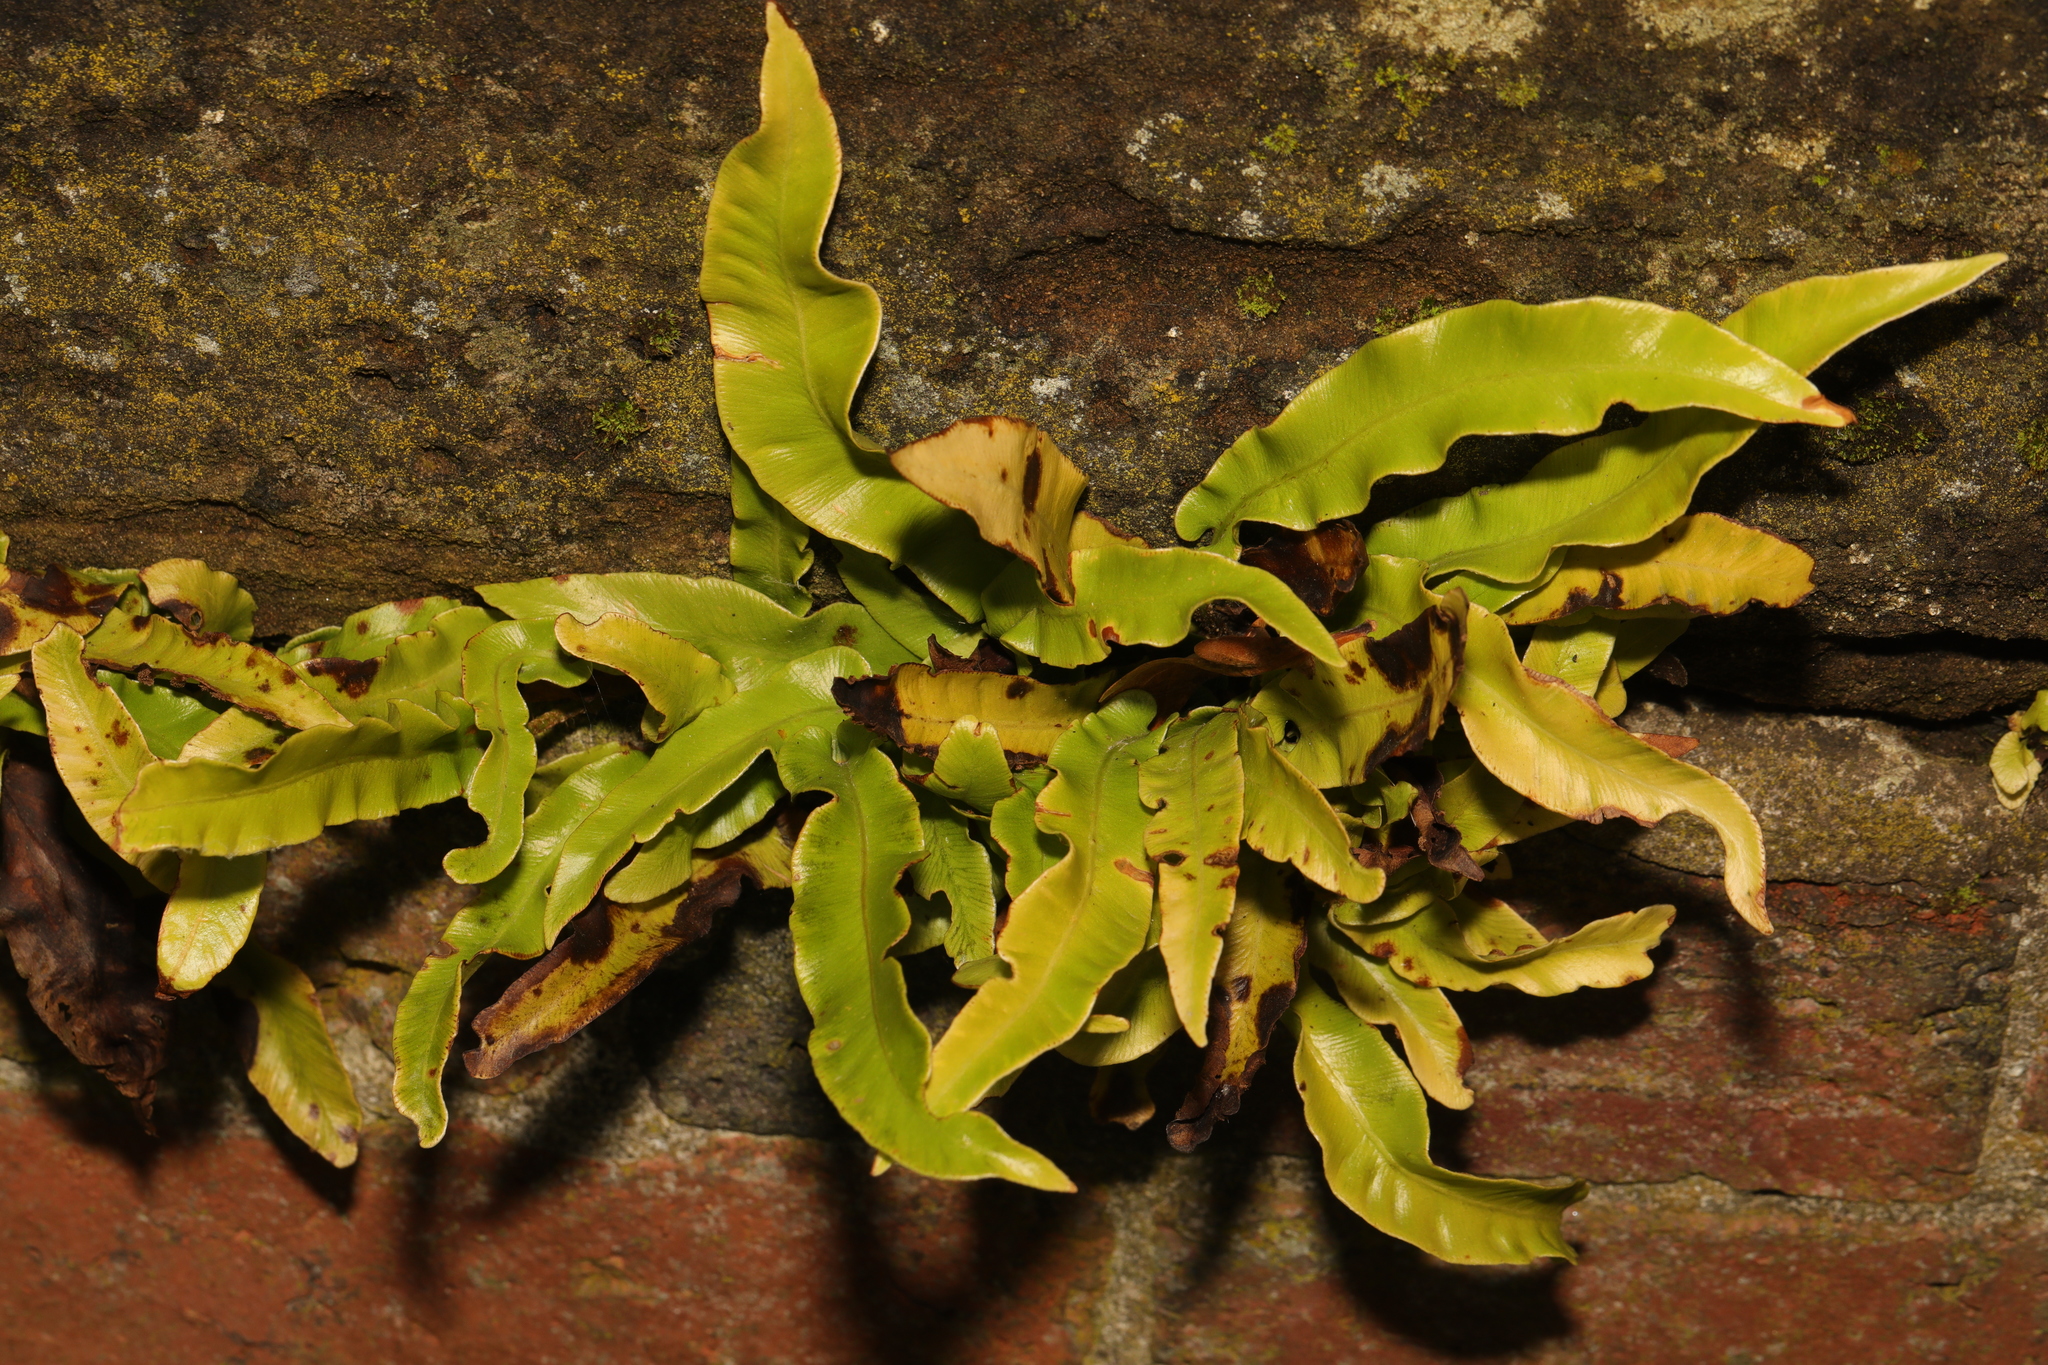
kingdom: Plantae
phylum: Tracheophyta
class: Polypodiopsida
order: Polypodiales
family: Aspleniaceae
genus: Asplenium
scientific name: Asplenium scolopendrium
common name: Hart's-tongue fern
